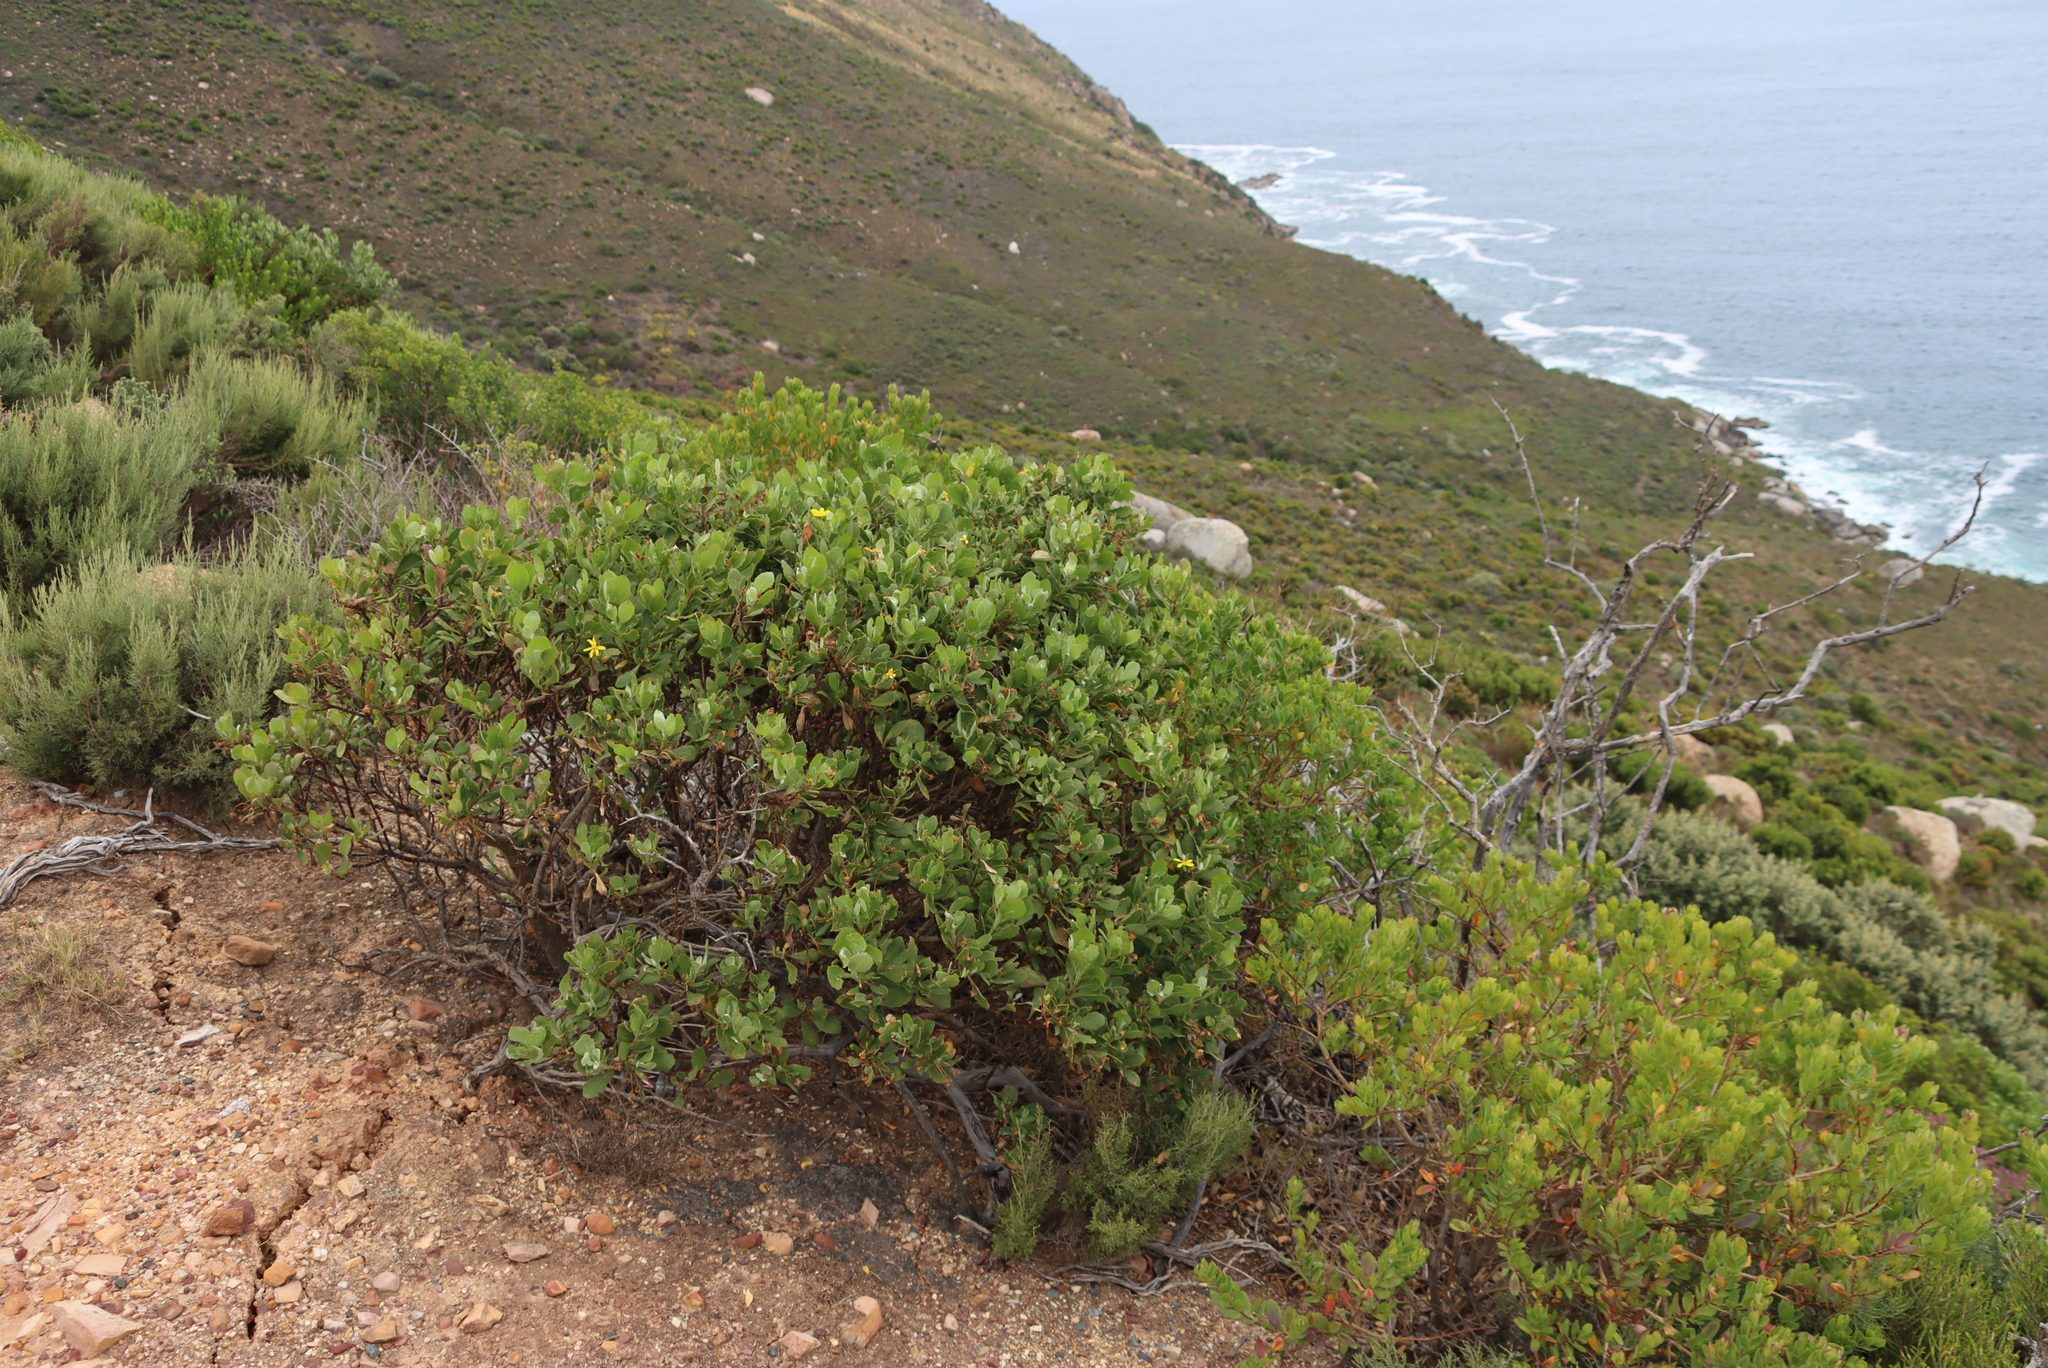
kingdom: Plantae
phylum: Tracheophyta
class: Magnoliopsida
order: Asterales
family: Asteraceae
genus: Osteospermum
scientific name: Osteospermum moniliferum
